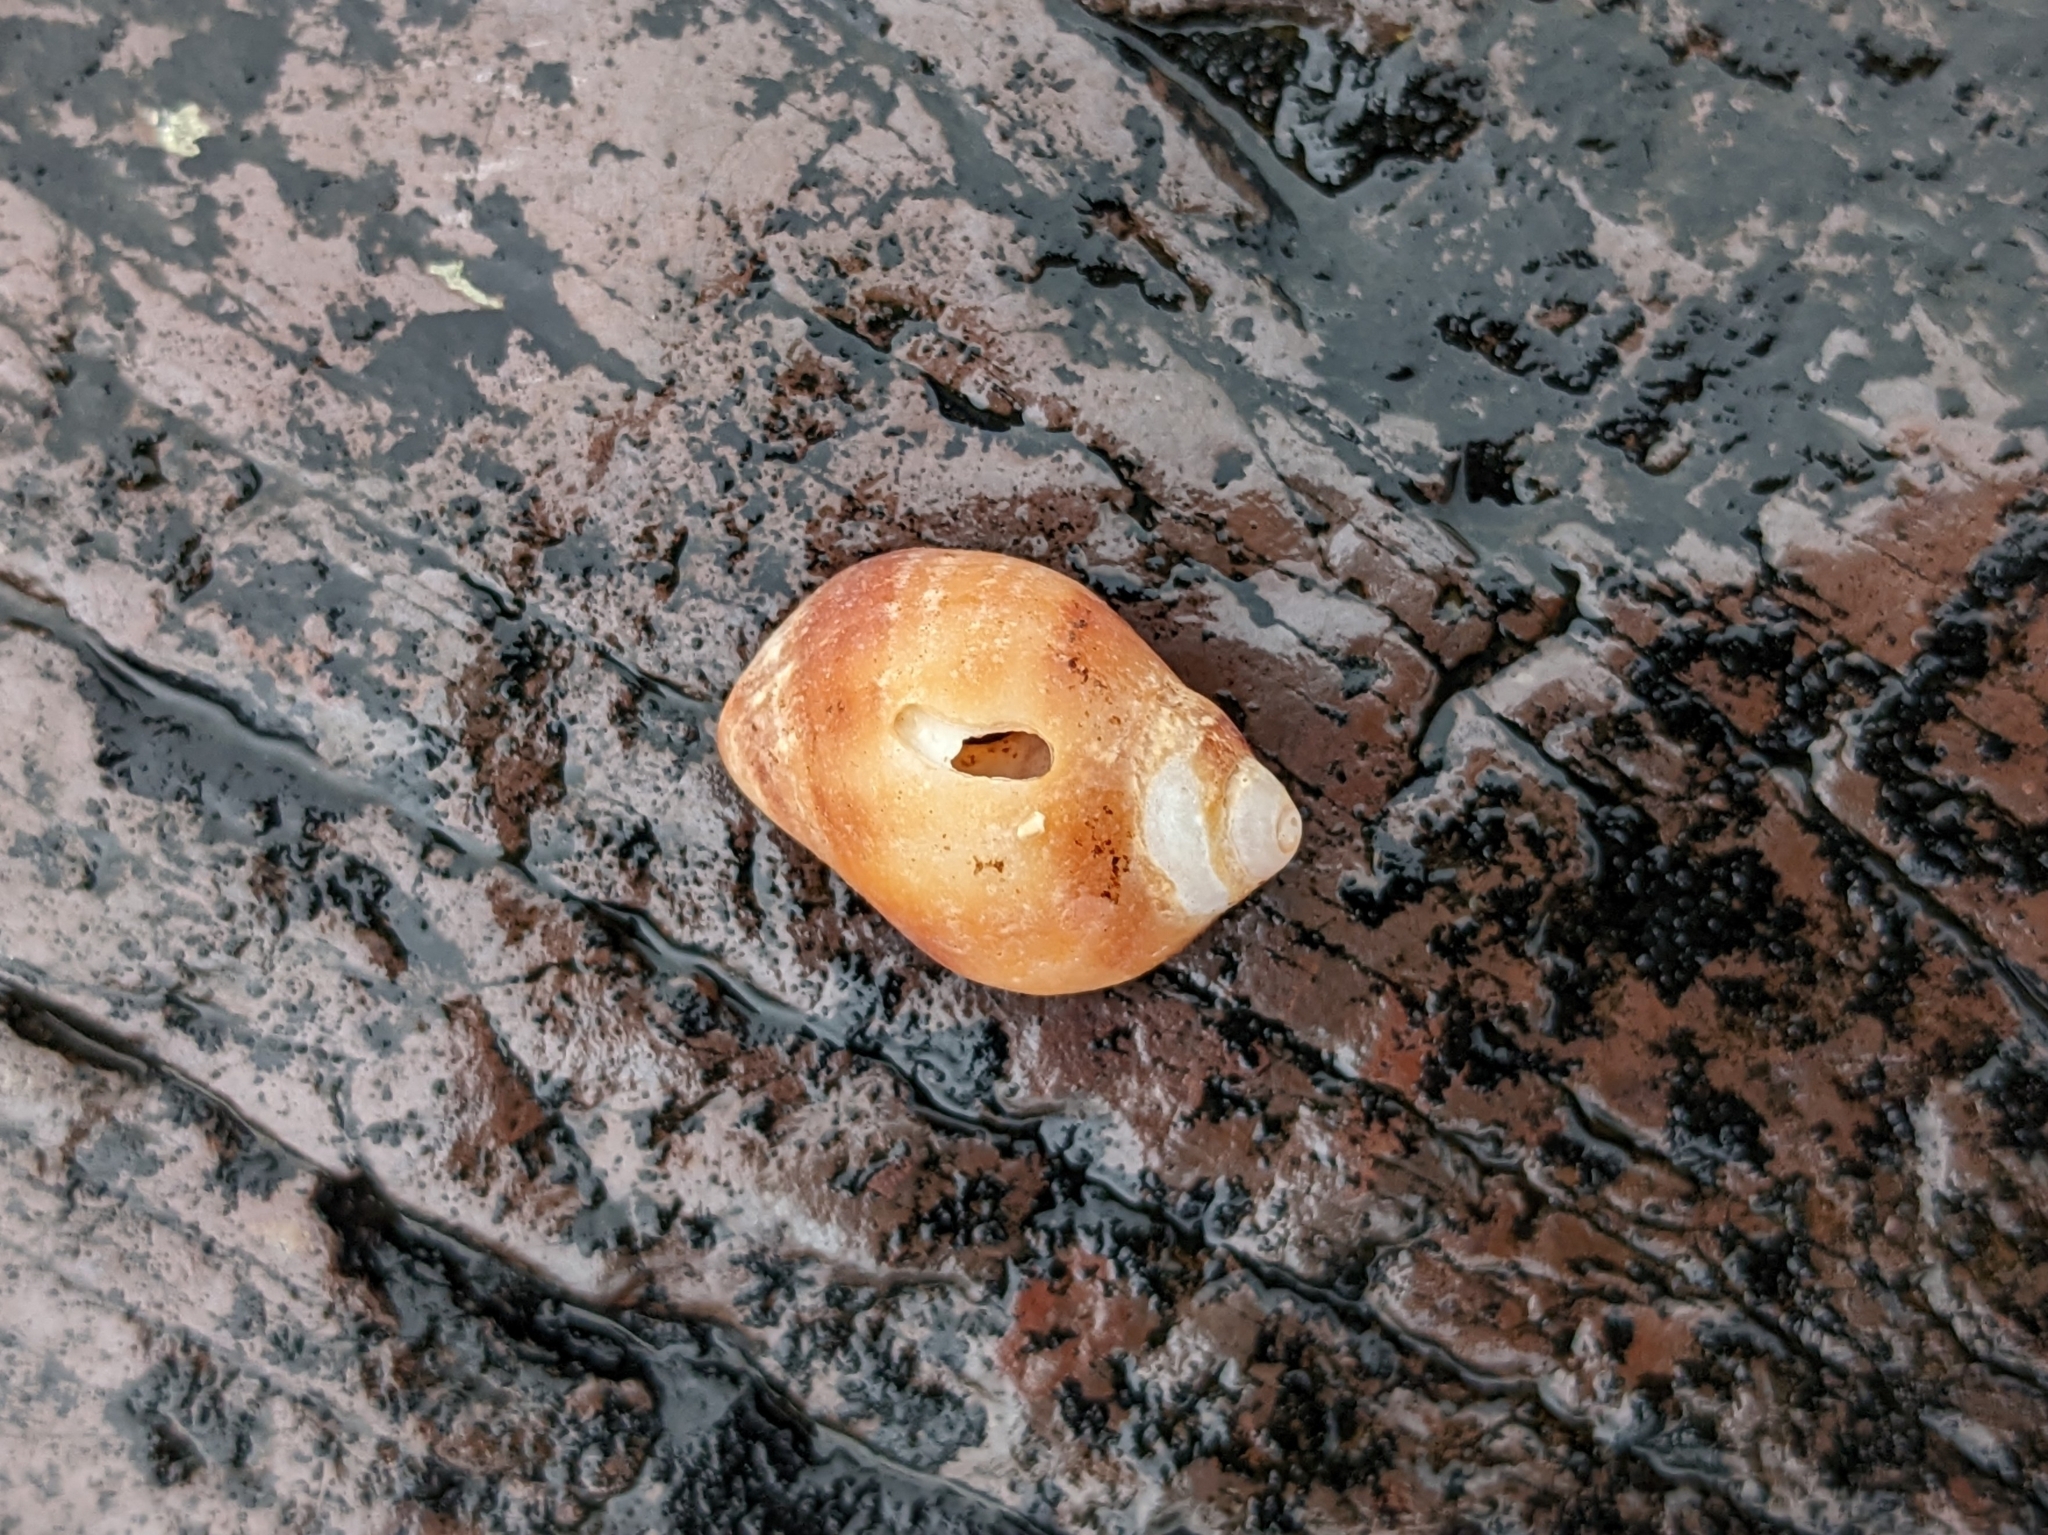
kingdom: Animalia
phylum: Mollusca
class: Gastropoda
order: Neogastropoda
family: Muricidae
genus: Nucella
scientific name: Nucella lapillus
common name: Dog whelk
